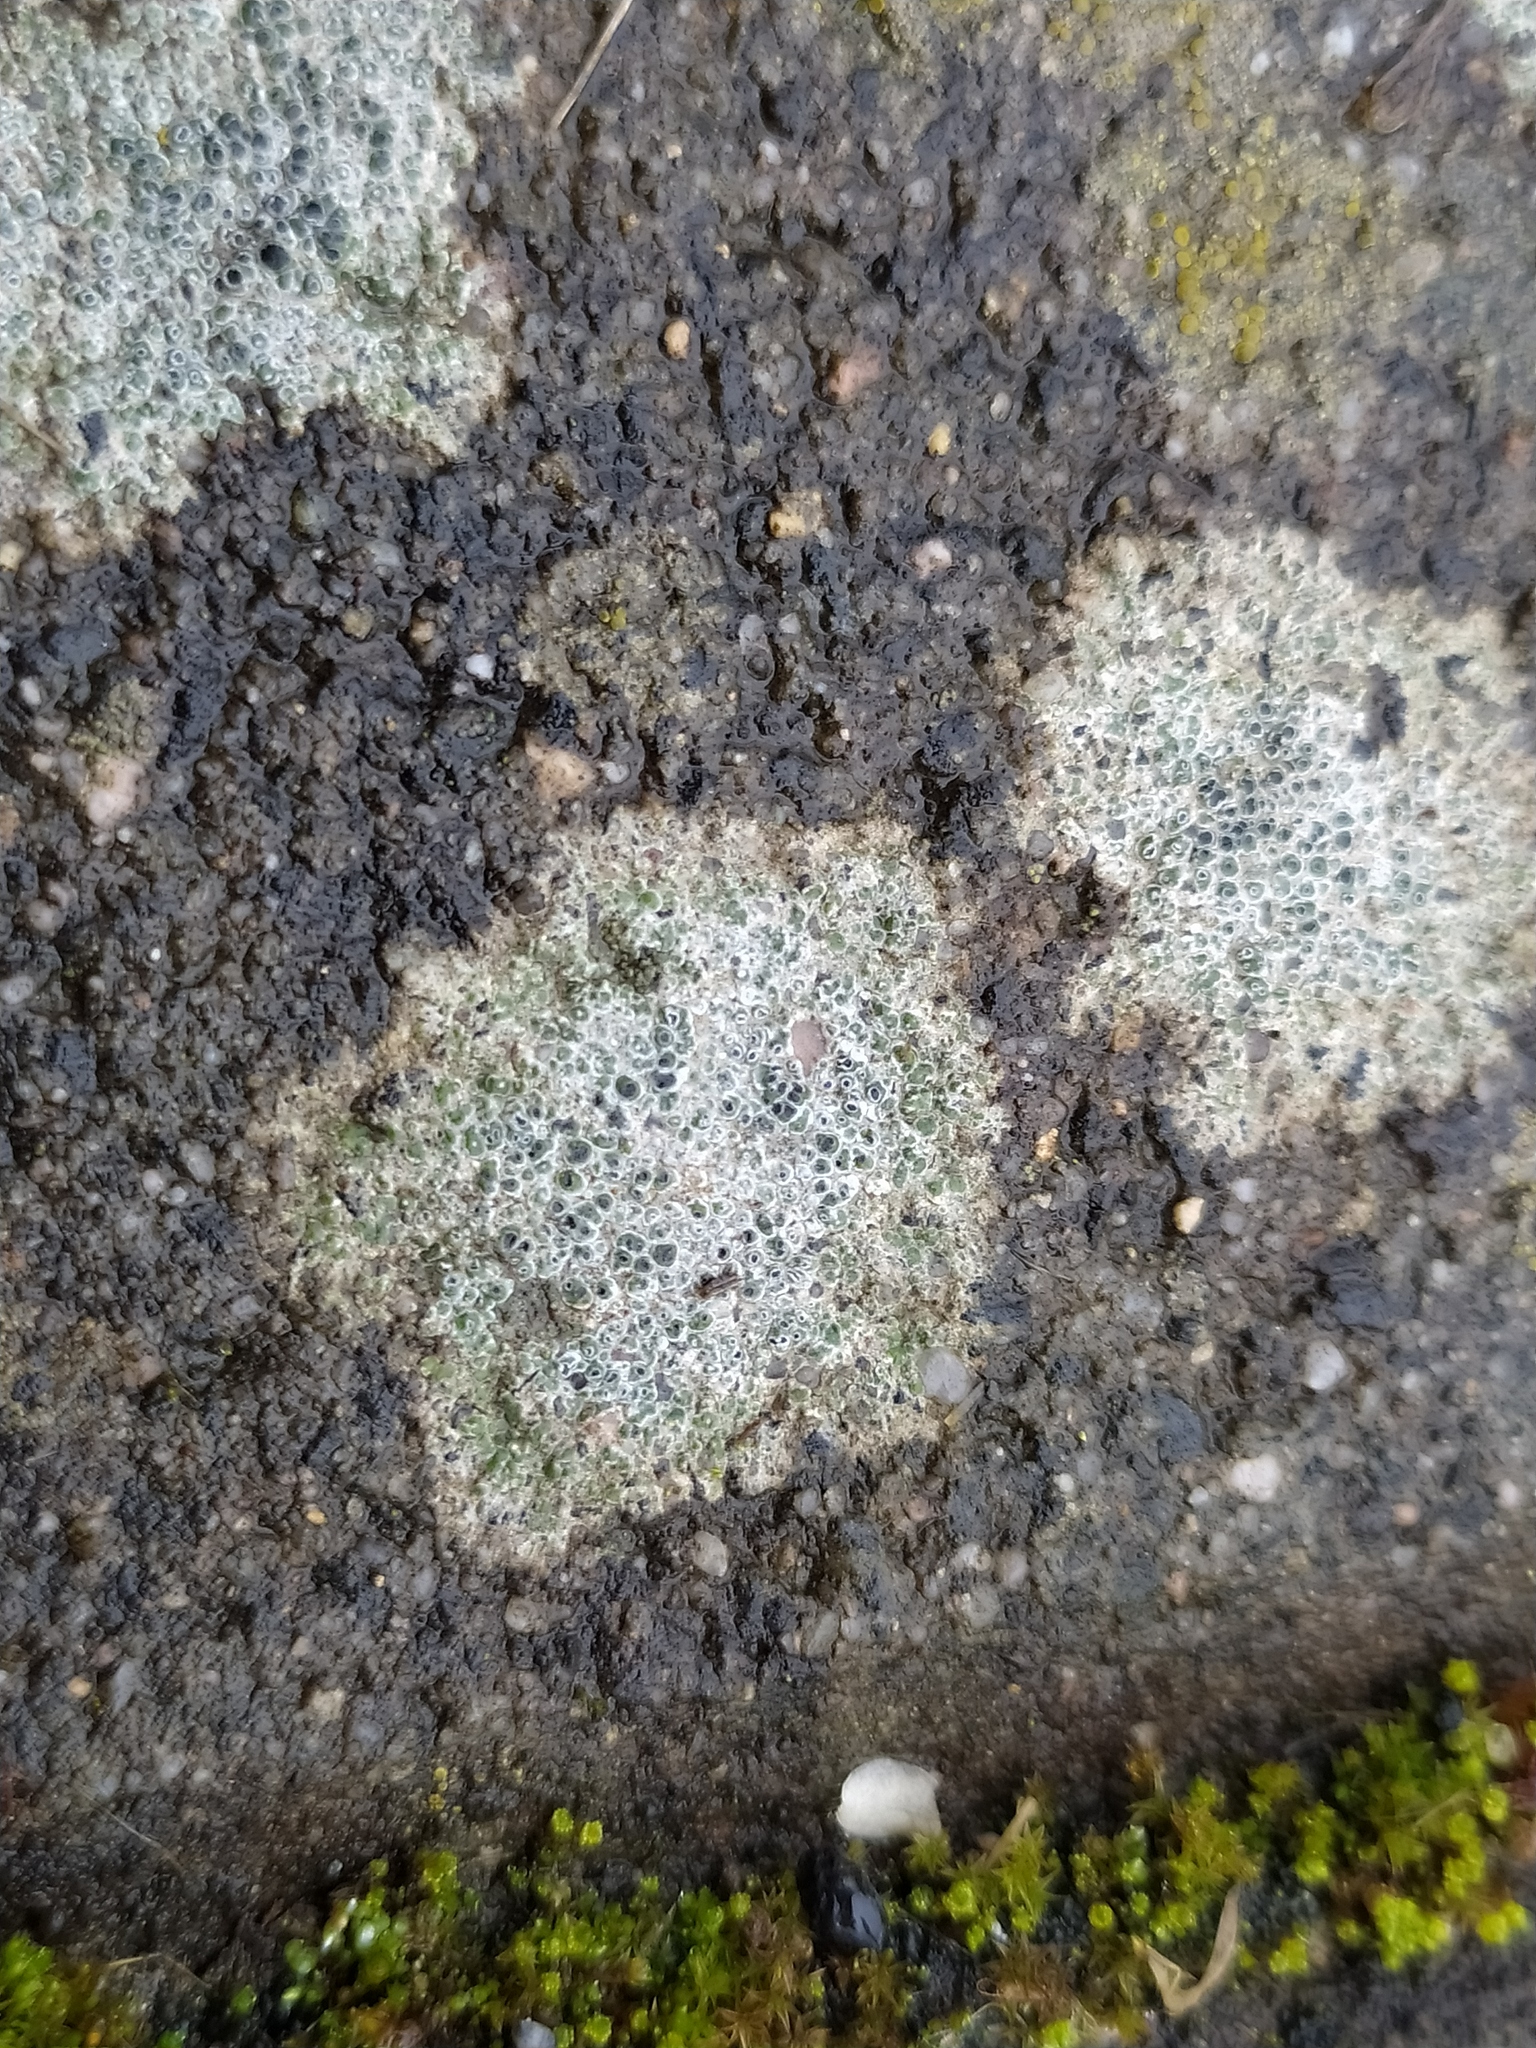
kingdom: Fungi
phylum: Ascomycota
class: Lecanoromycetes
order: Pertusariales
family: Megasporaceae
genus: Circinaria
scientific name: Circinaria contorta
